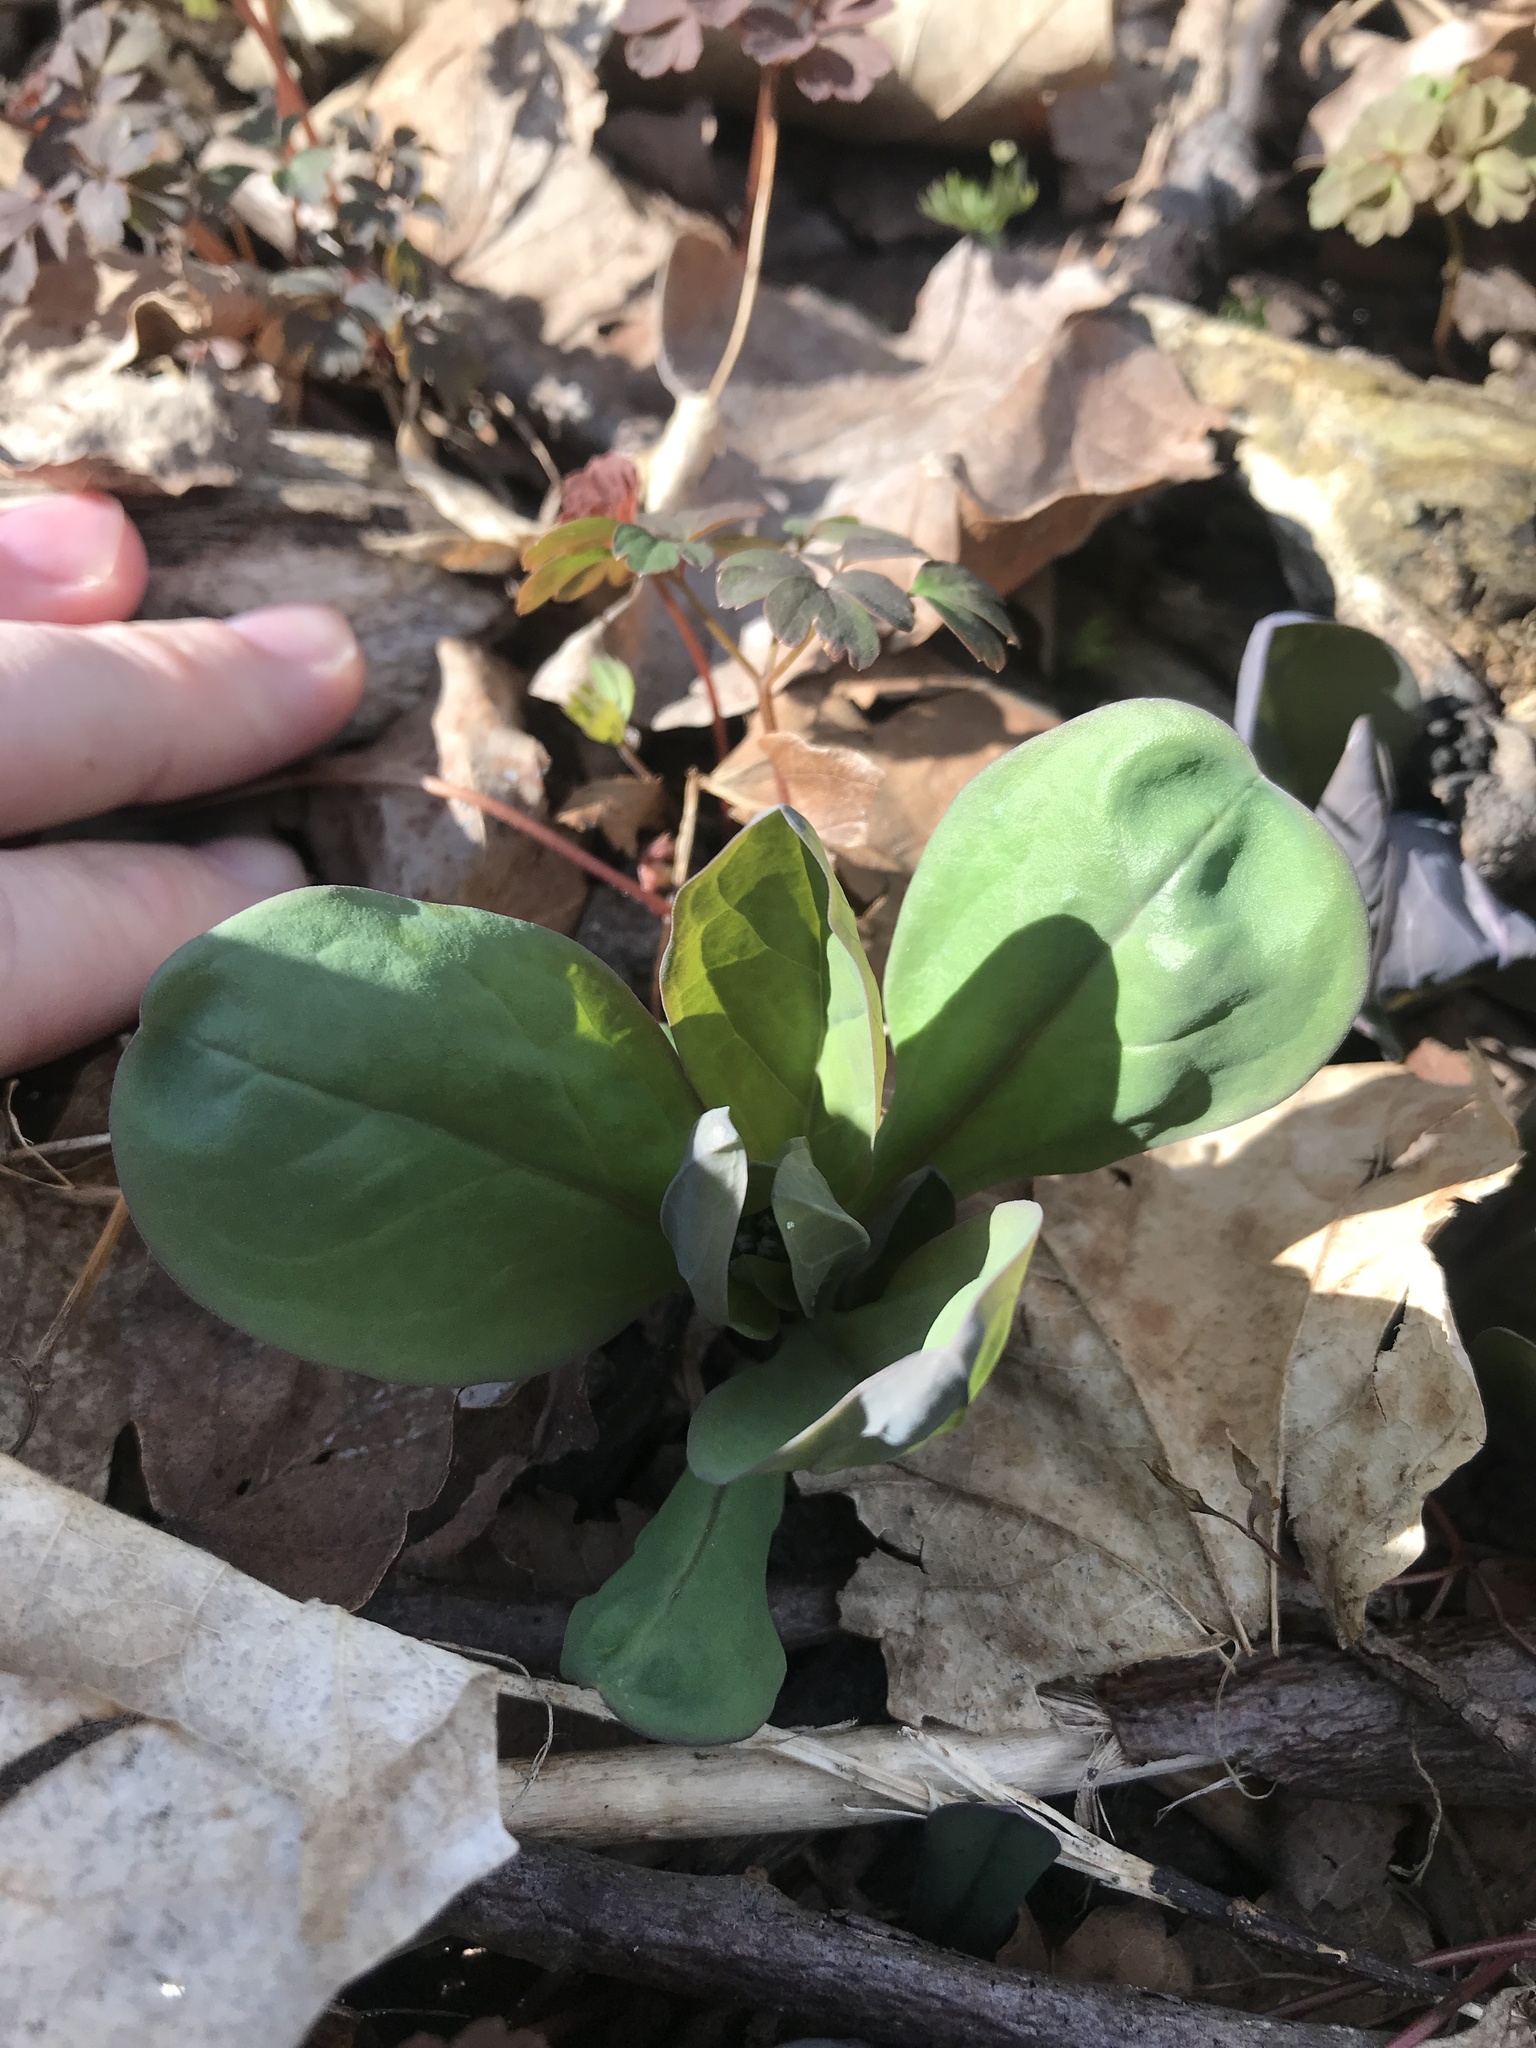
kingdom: Plantae
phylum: Tracheophyta
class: Magnoliopsida
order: Boraginales
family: Boraginaceae
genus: Mertensia
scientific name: Mertensia virginica
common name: Virginia bluebells
